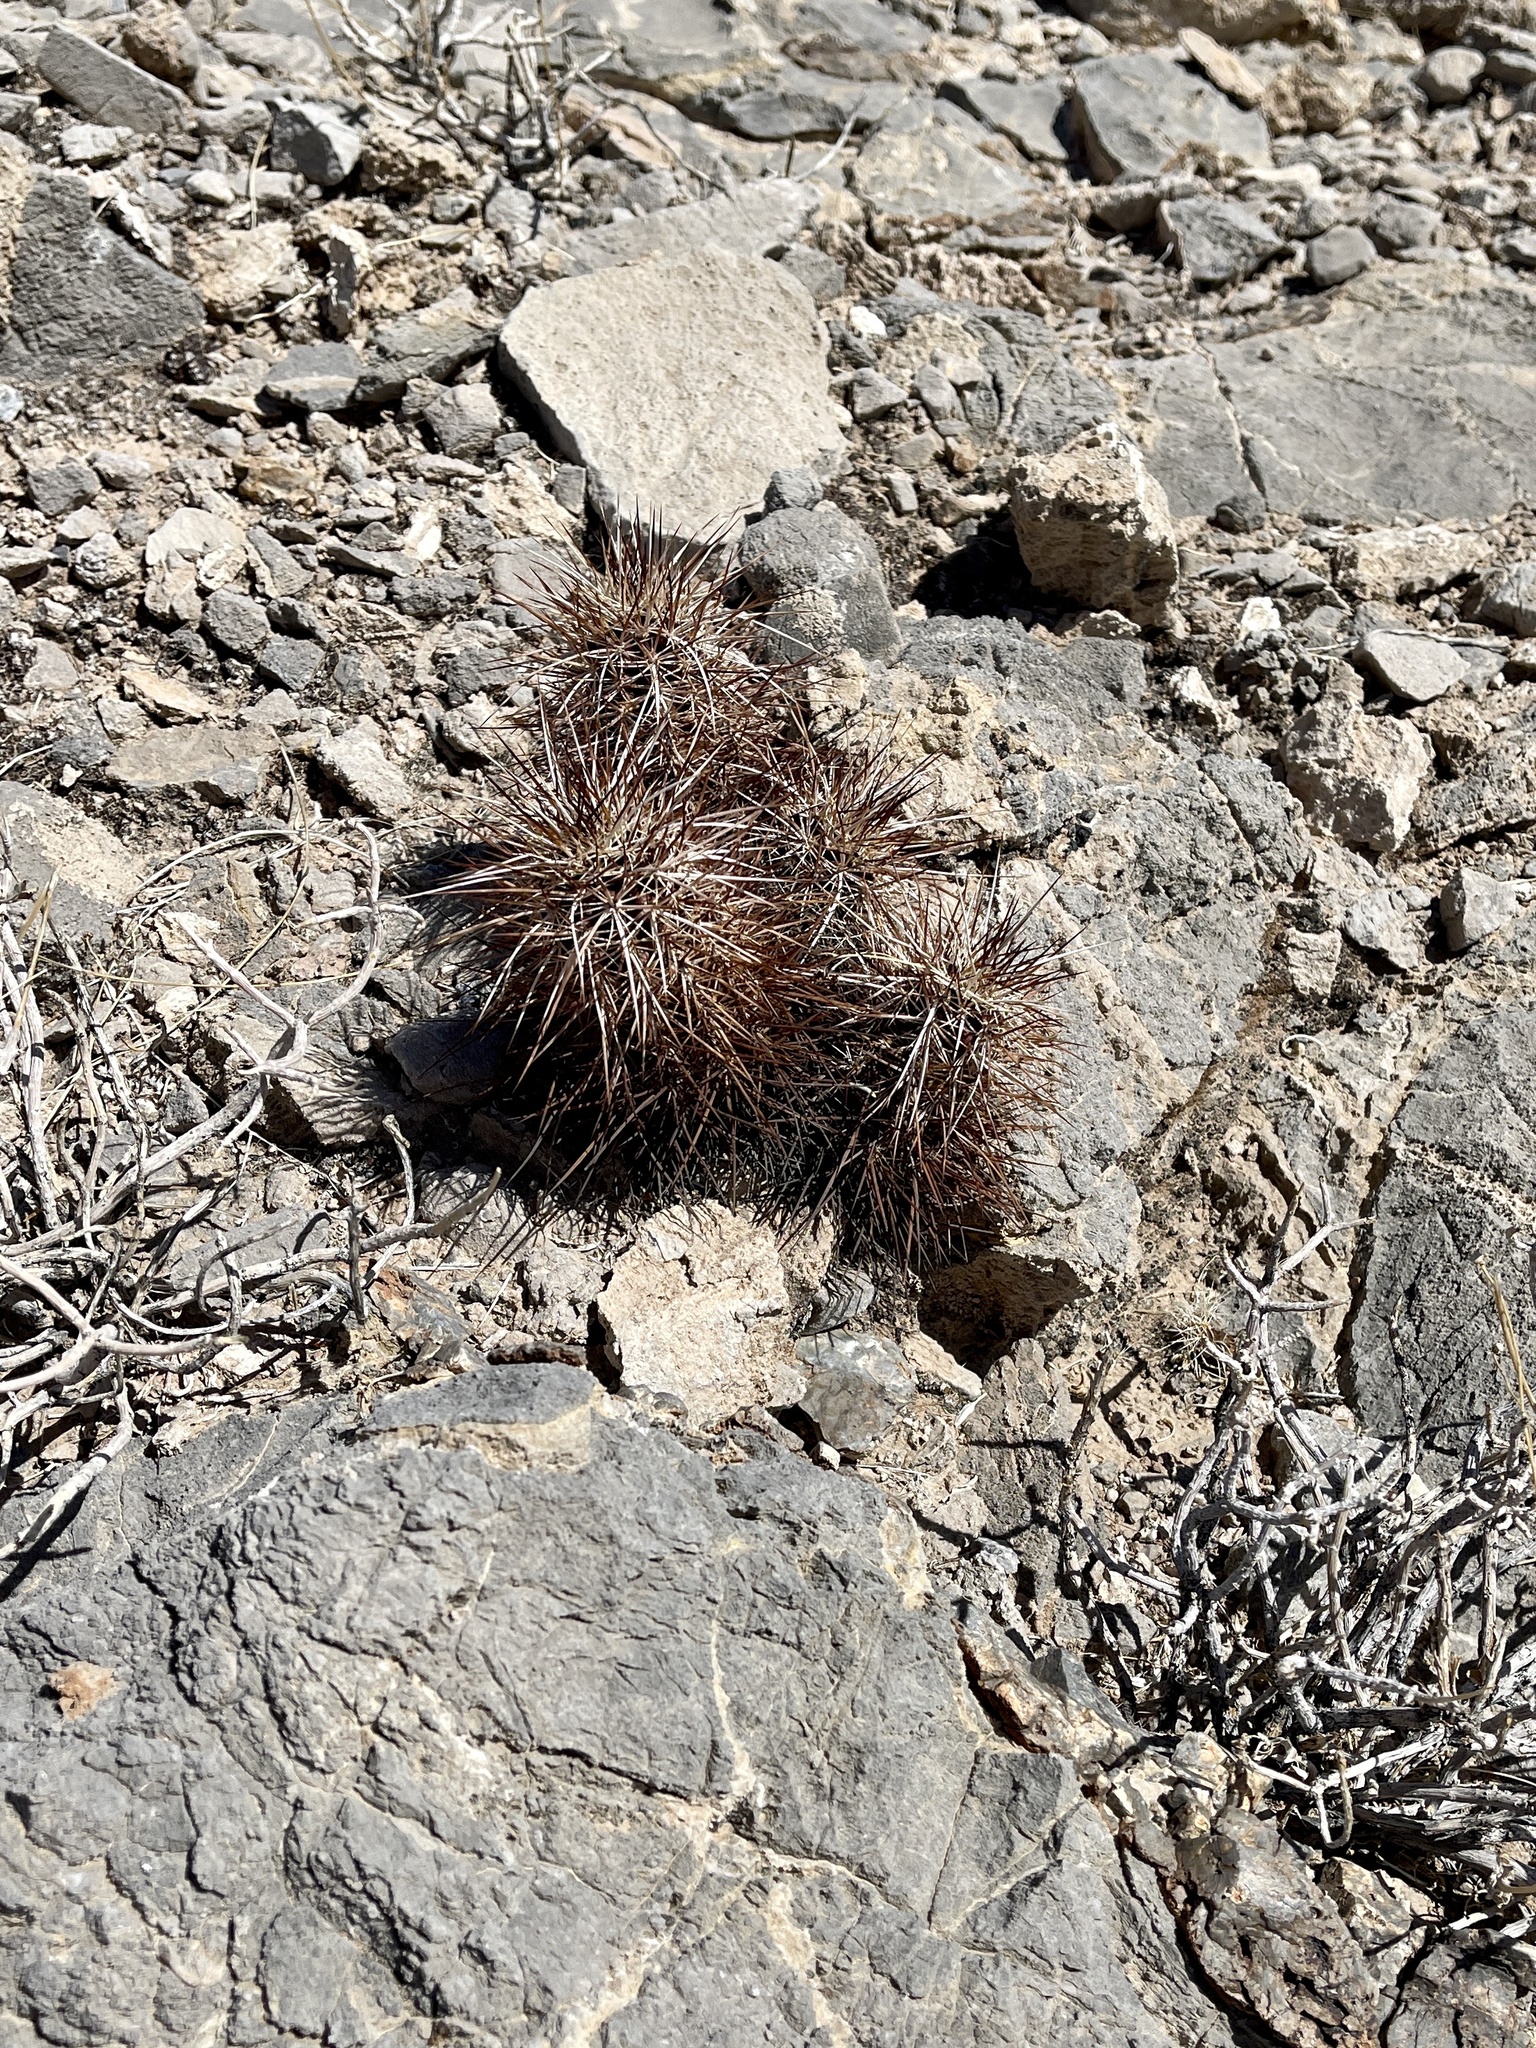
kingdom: Plantae
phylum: Tracheophyta
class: Magnoliopsida
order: Caryophyllales
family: Cactaceae
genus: Echinocereus
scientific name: Echinocereus engelmannii
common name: Engelmann's hedgehog cactus
